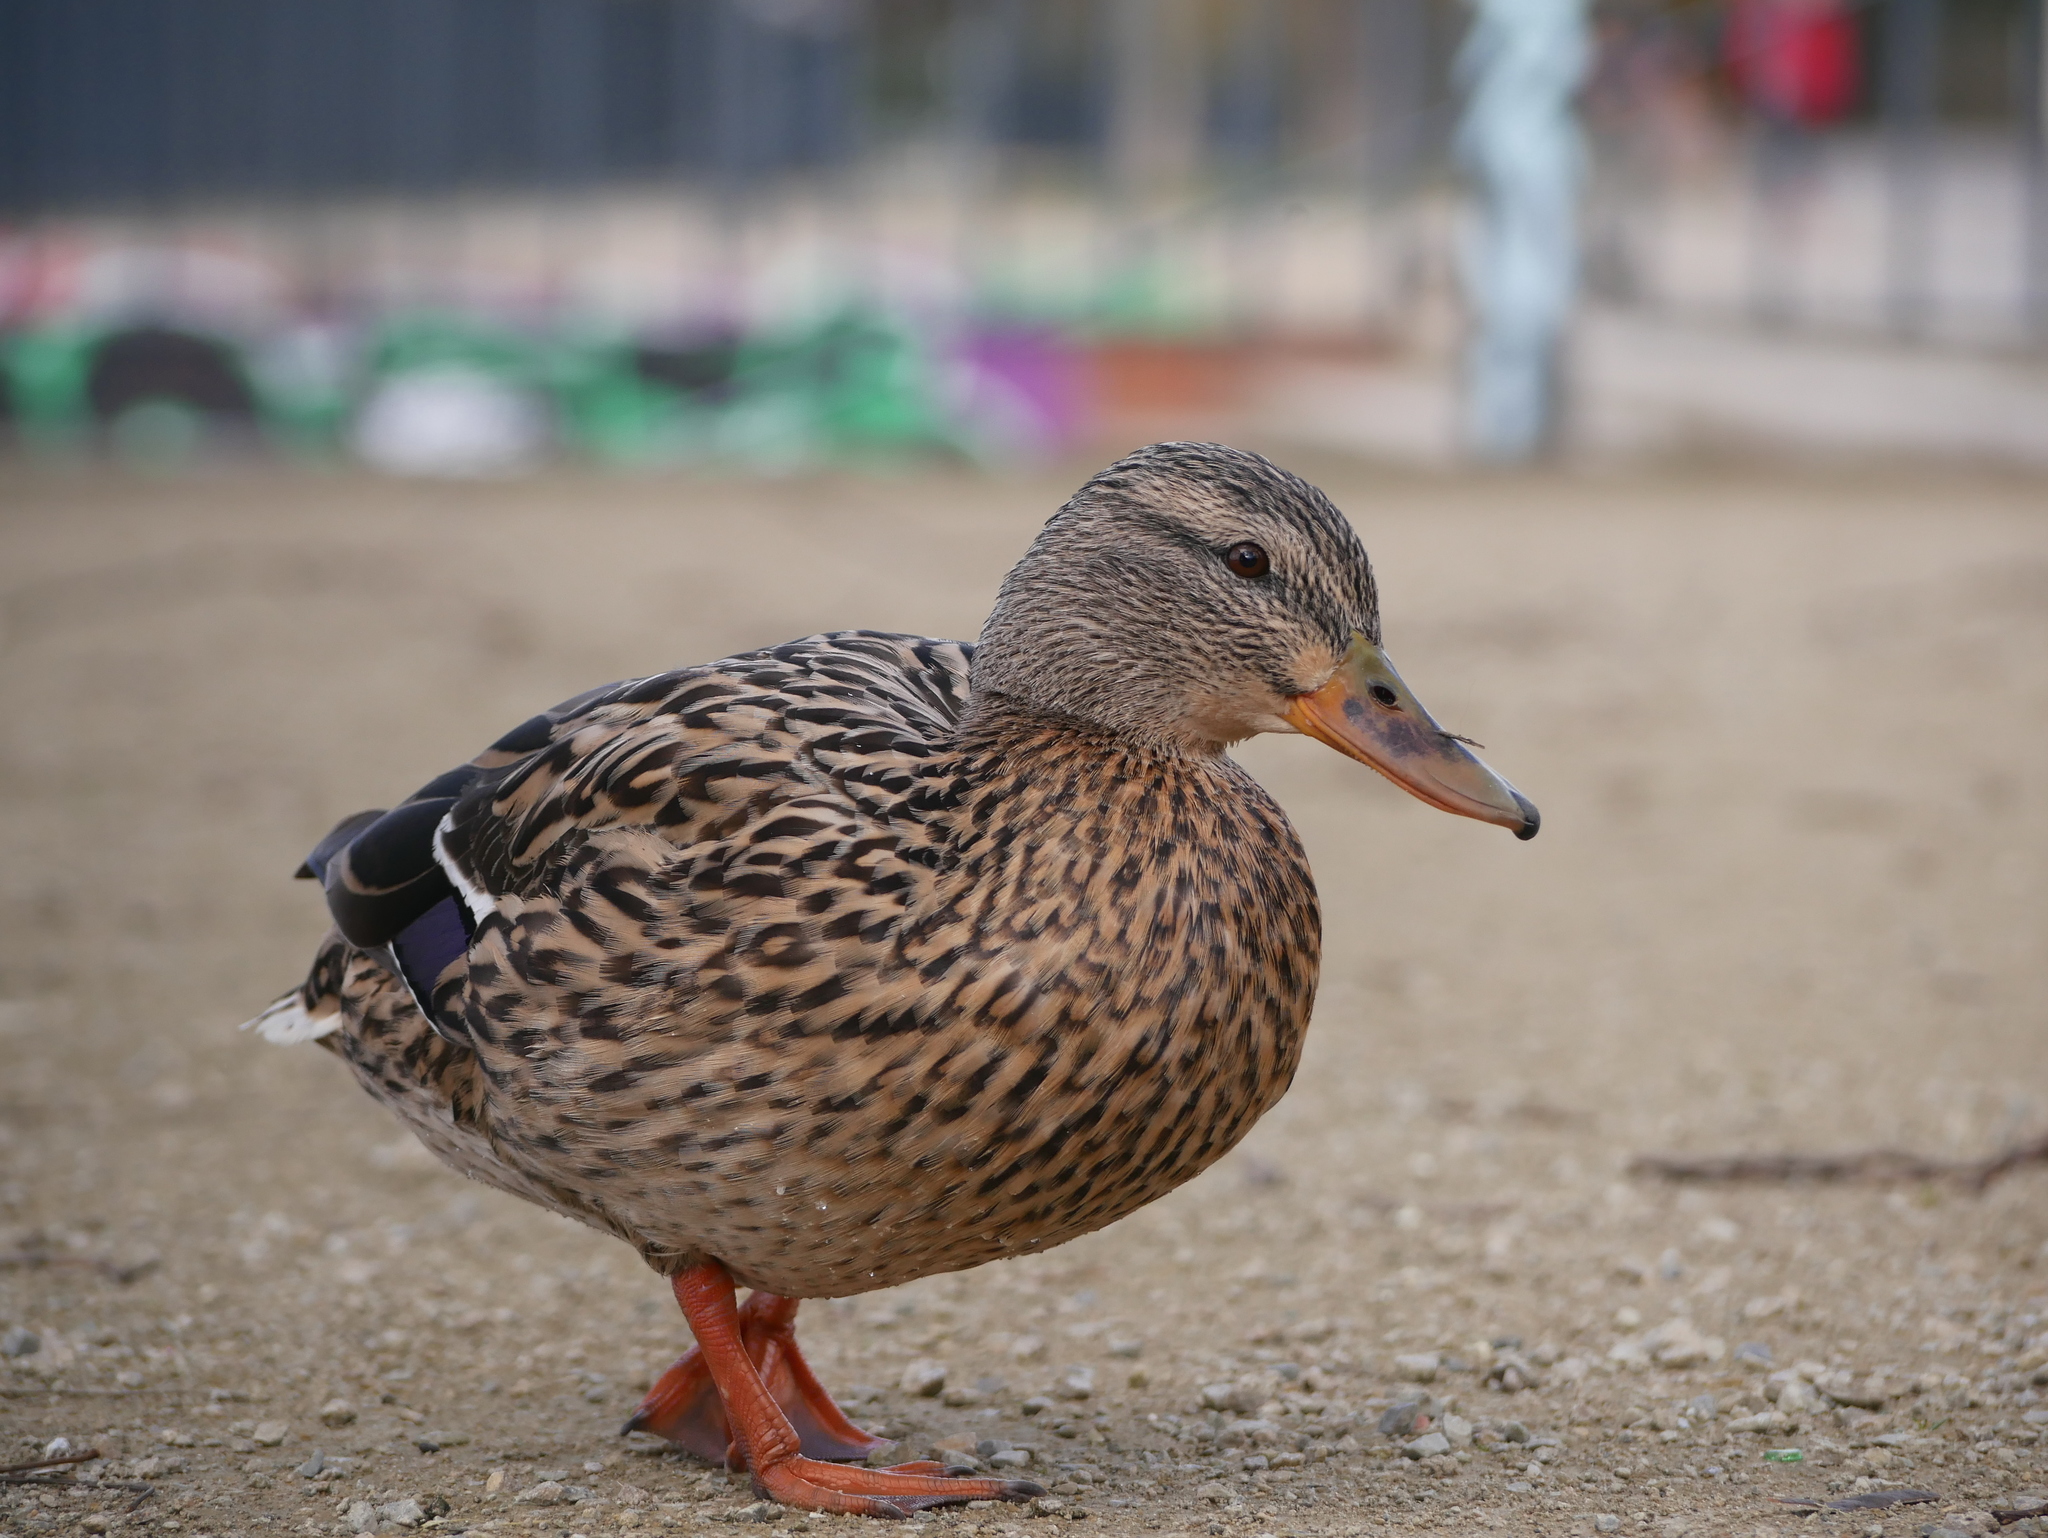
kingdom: Animalia
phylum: Chordata
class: Aves
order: Anseriformes
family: Anatidae
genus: Anas
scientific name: Anas platyrhynchos
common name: Mallard
